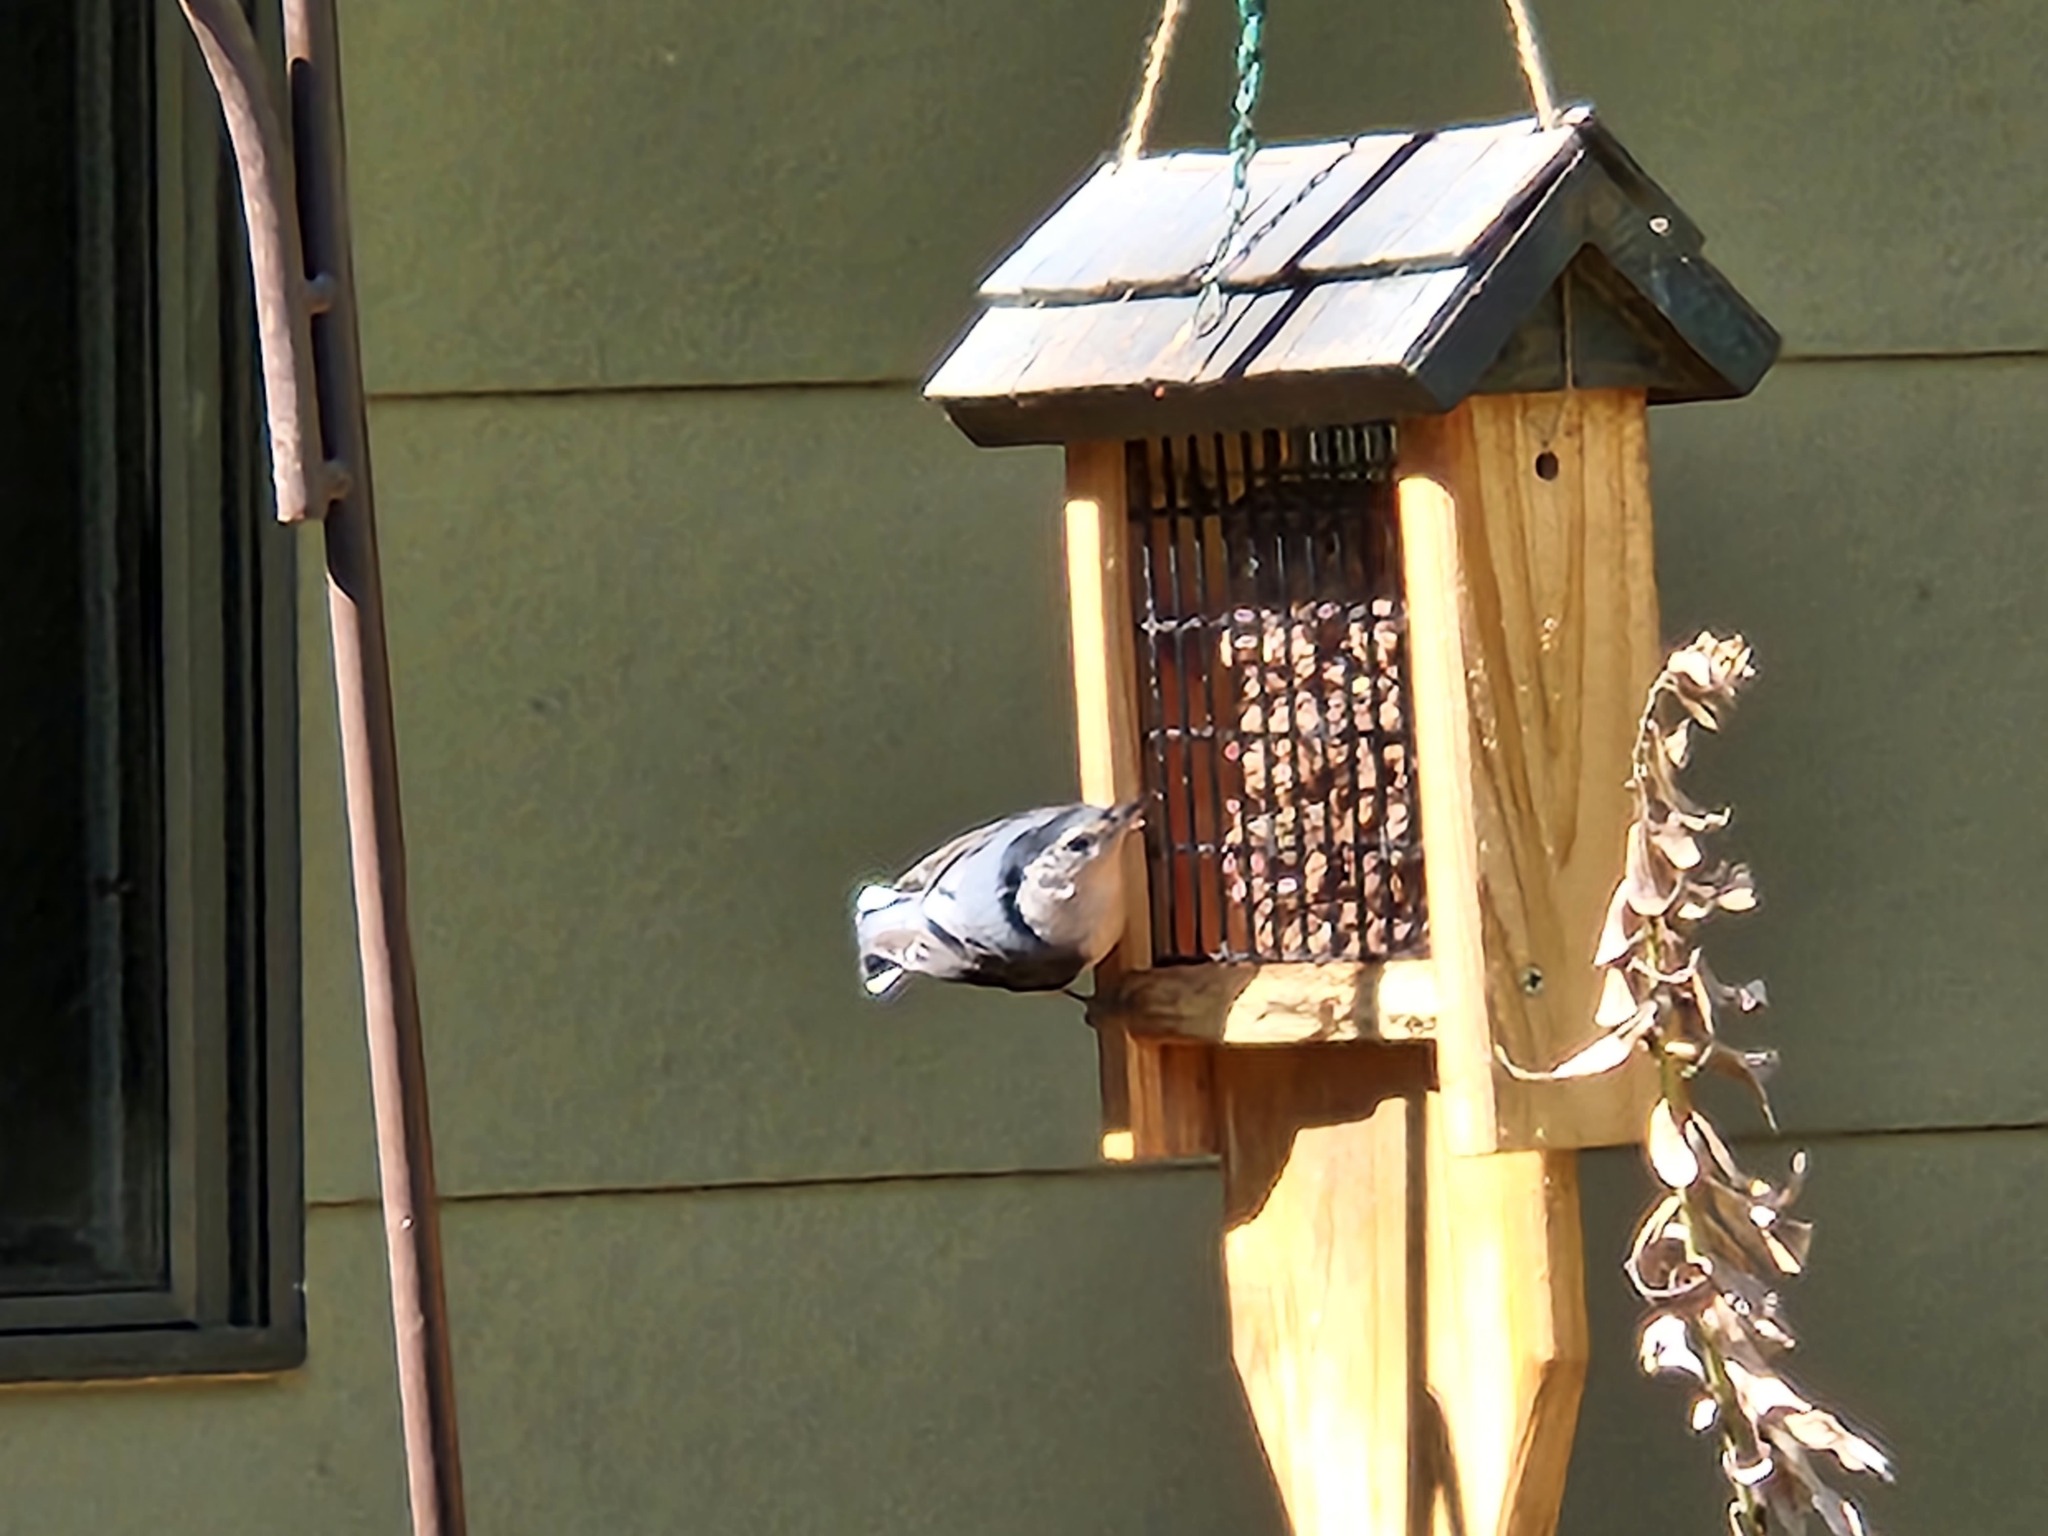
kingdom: Animalia
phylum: Chordata
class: Aves
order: Passeriformes
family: Sittidae
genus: Sitta
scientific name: Sitta carolinensis
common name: White-breasted nuthatch
